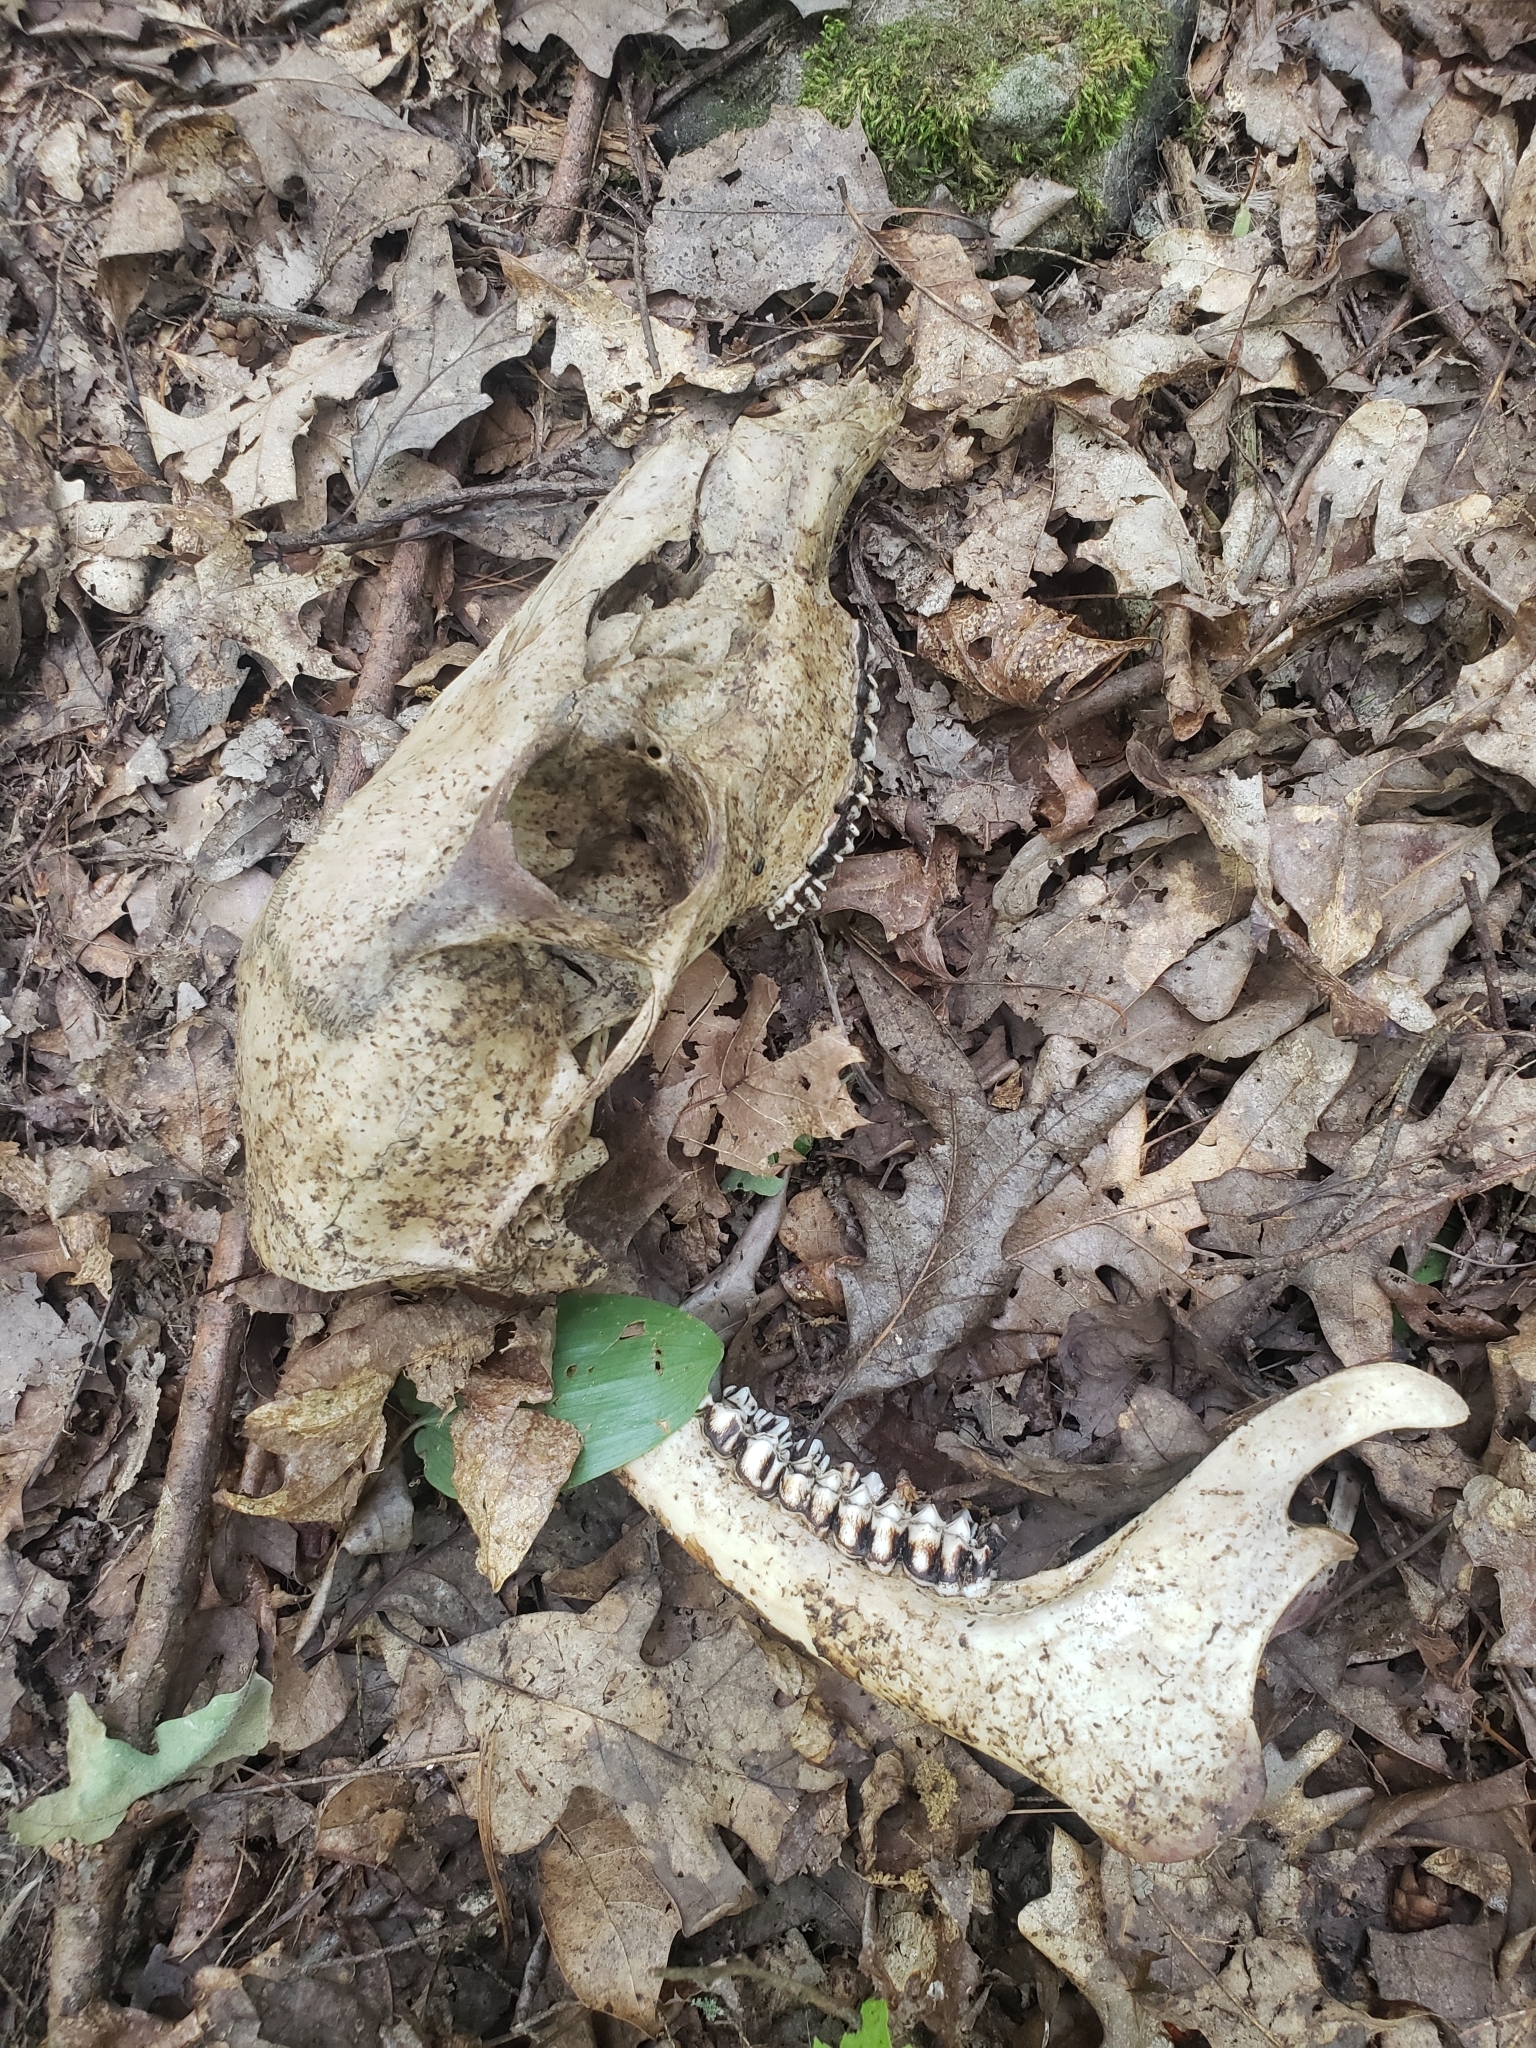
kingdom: Animalia
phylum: Chordata
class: Mammalia
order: Artiodactyla
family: Cervidae
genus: Odocoileus
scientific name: Odocoileus virginianus
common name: White-tailed deer
